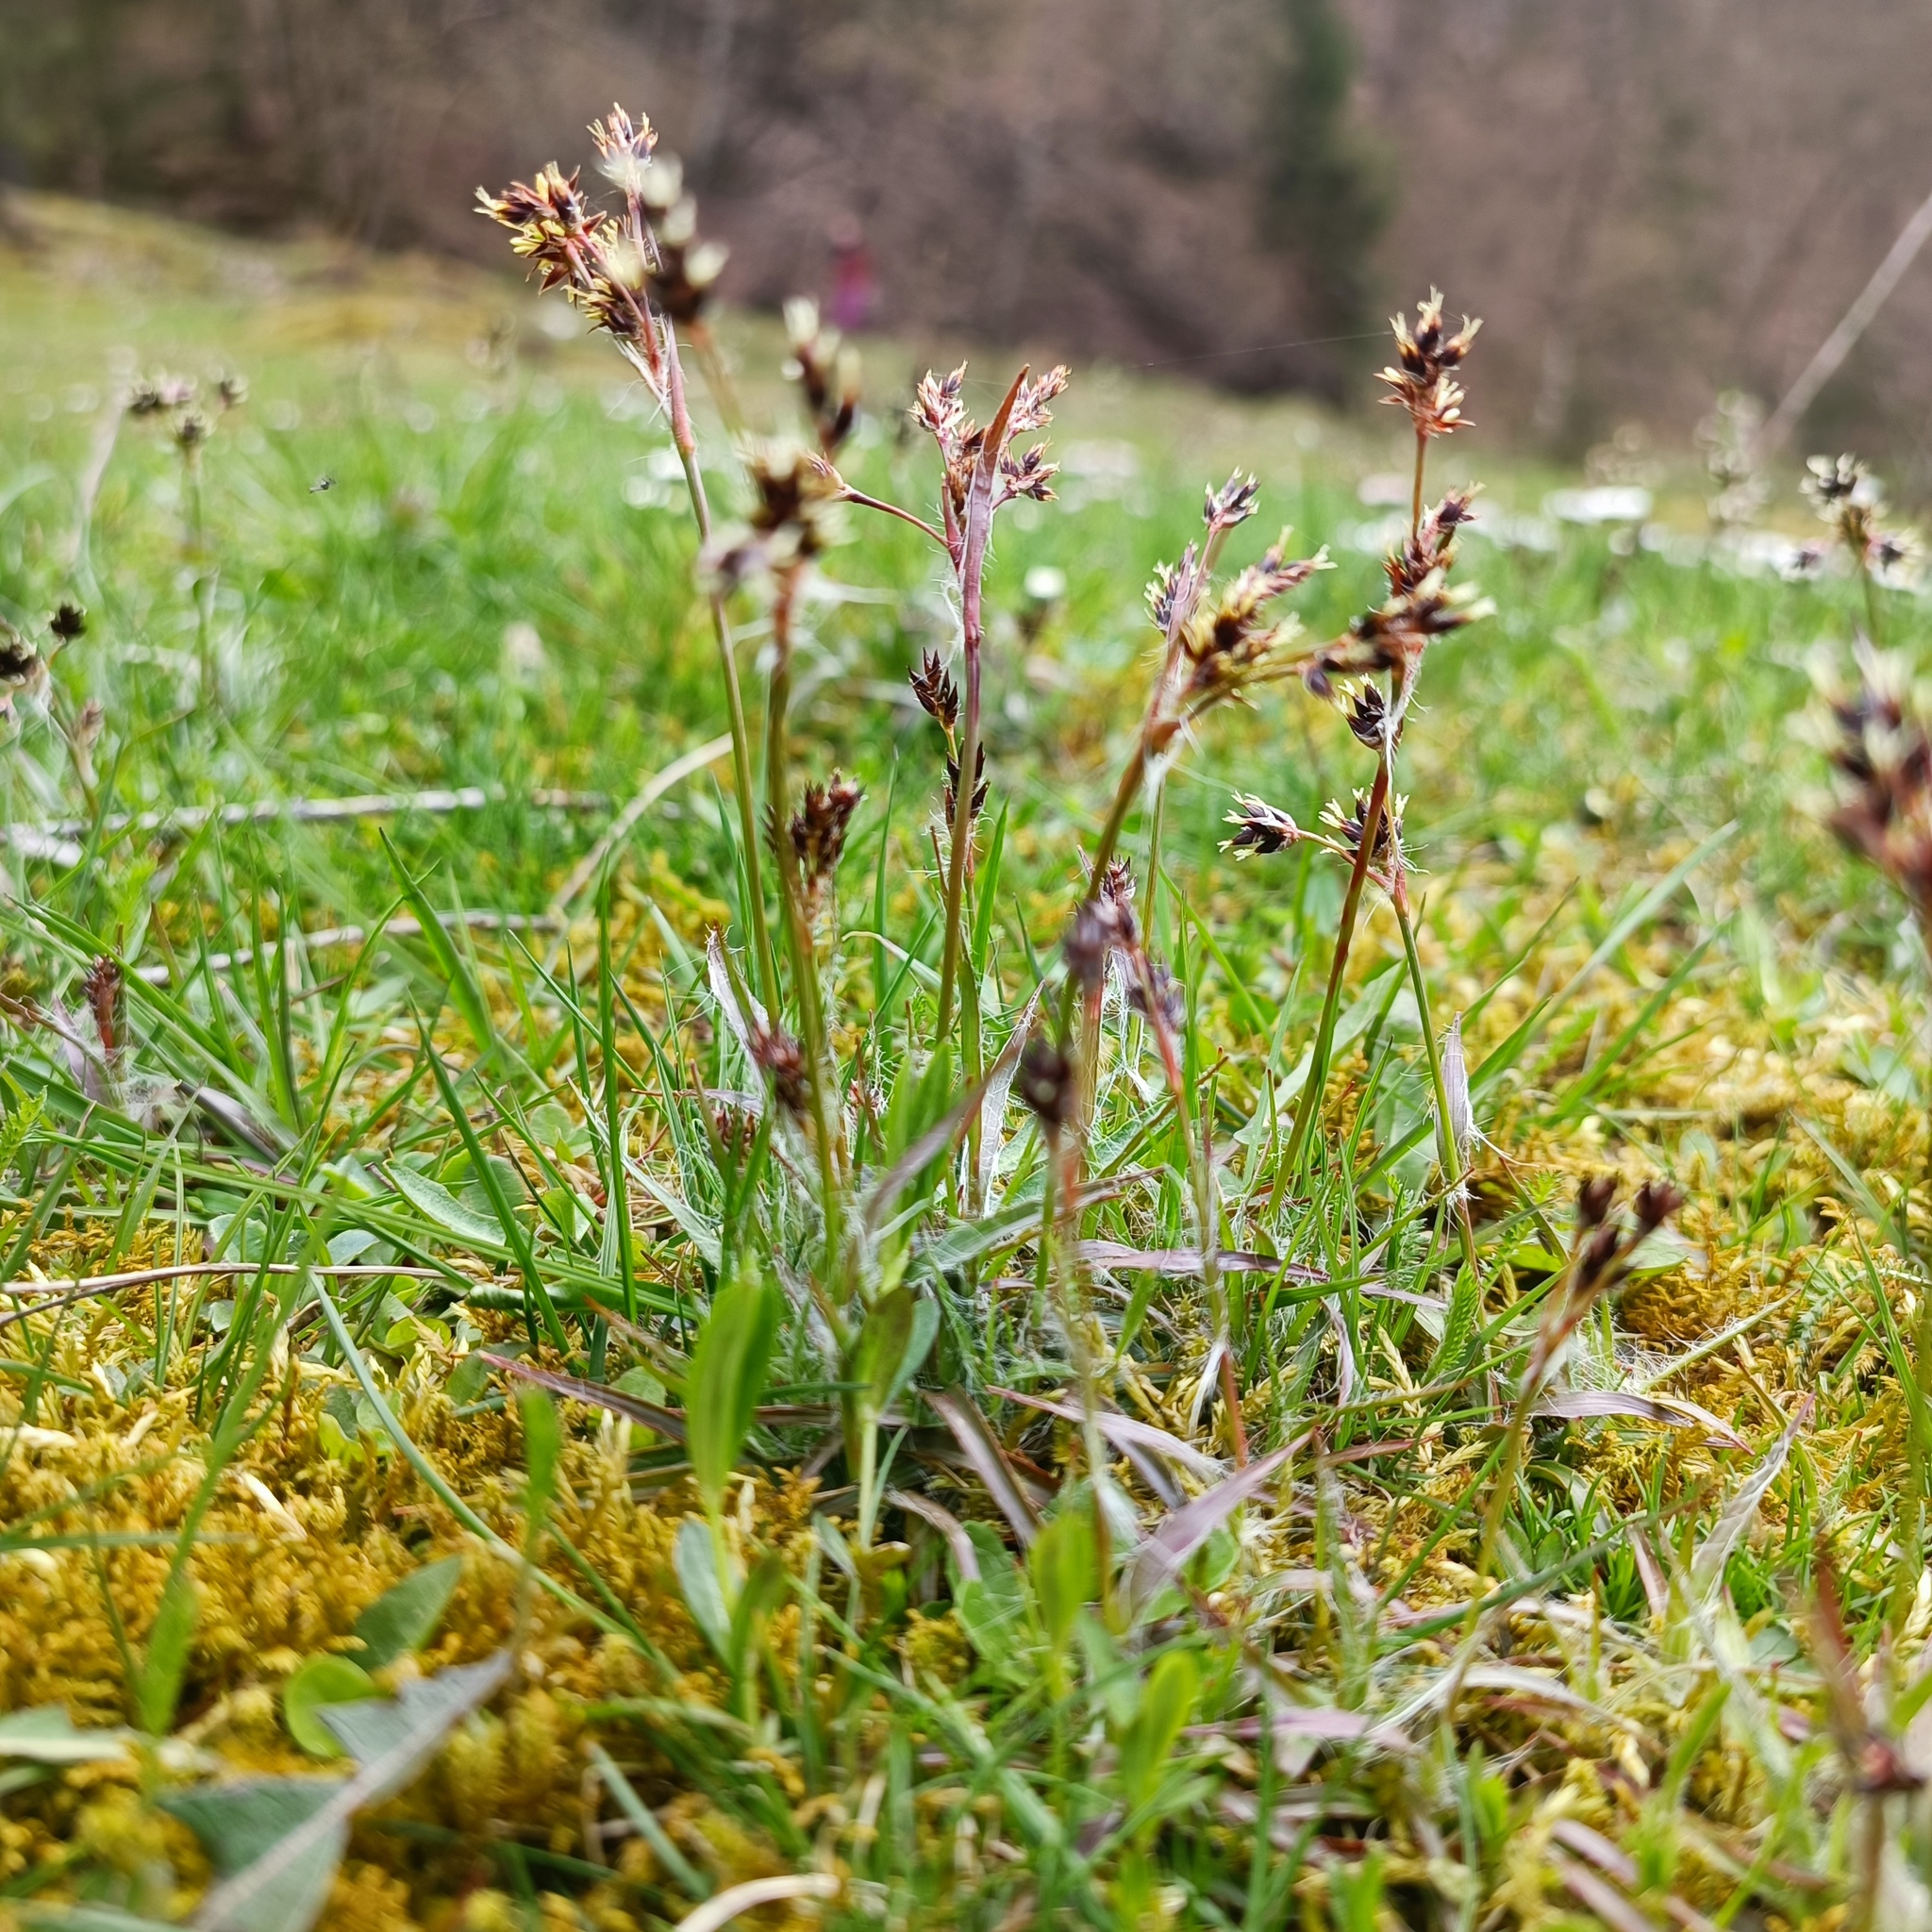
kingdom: Plantae
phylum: Tracheophyta
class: Liliopsida
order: Poales
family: Juncaceae
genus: Luzula
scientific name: Luzula campestris
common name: Field wood-rush
